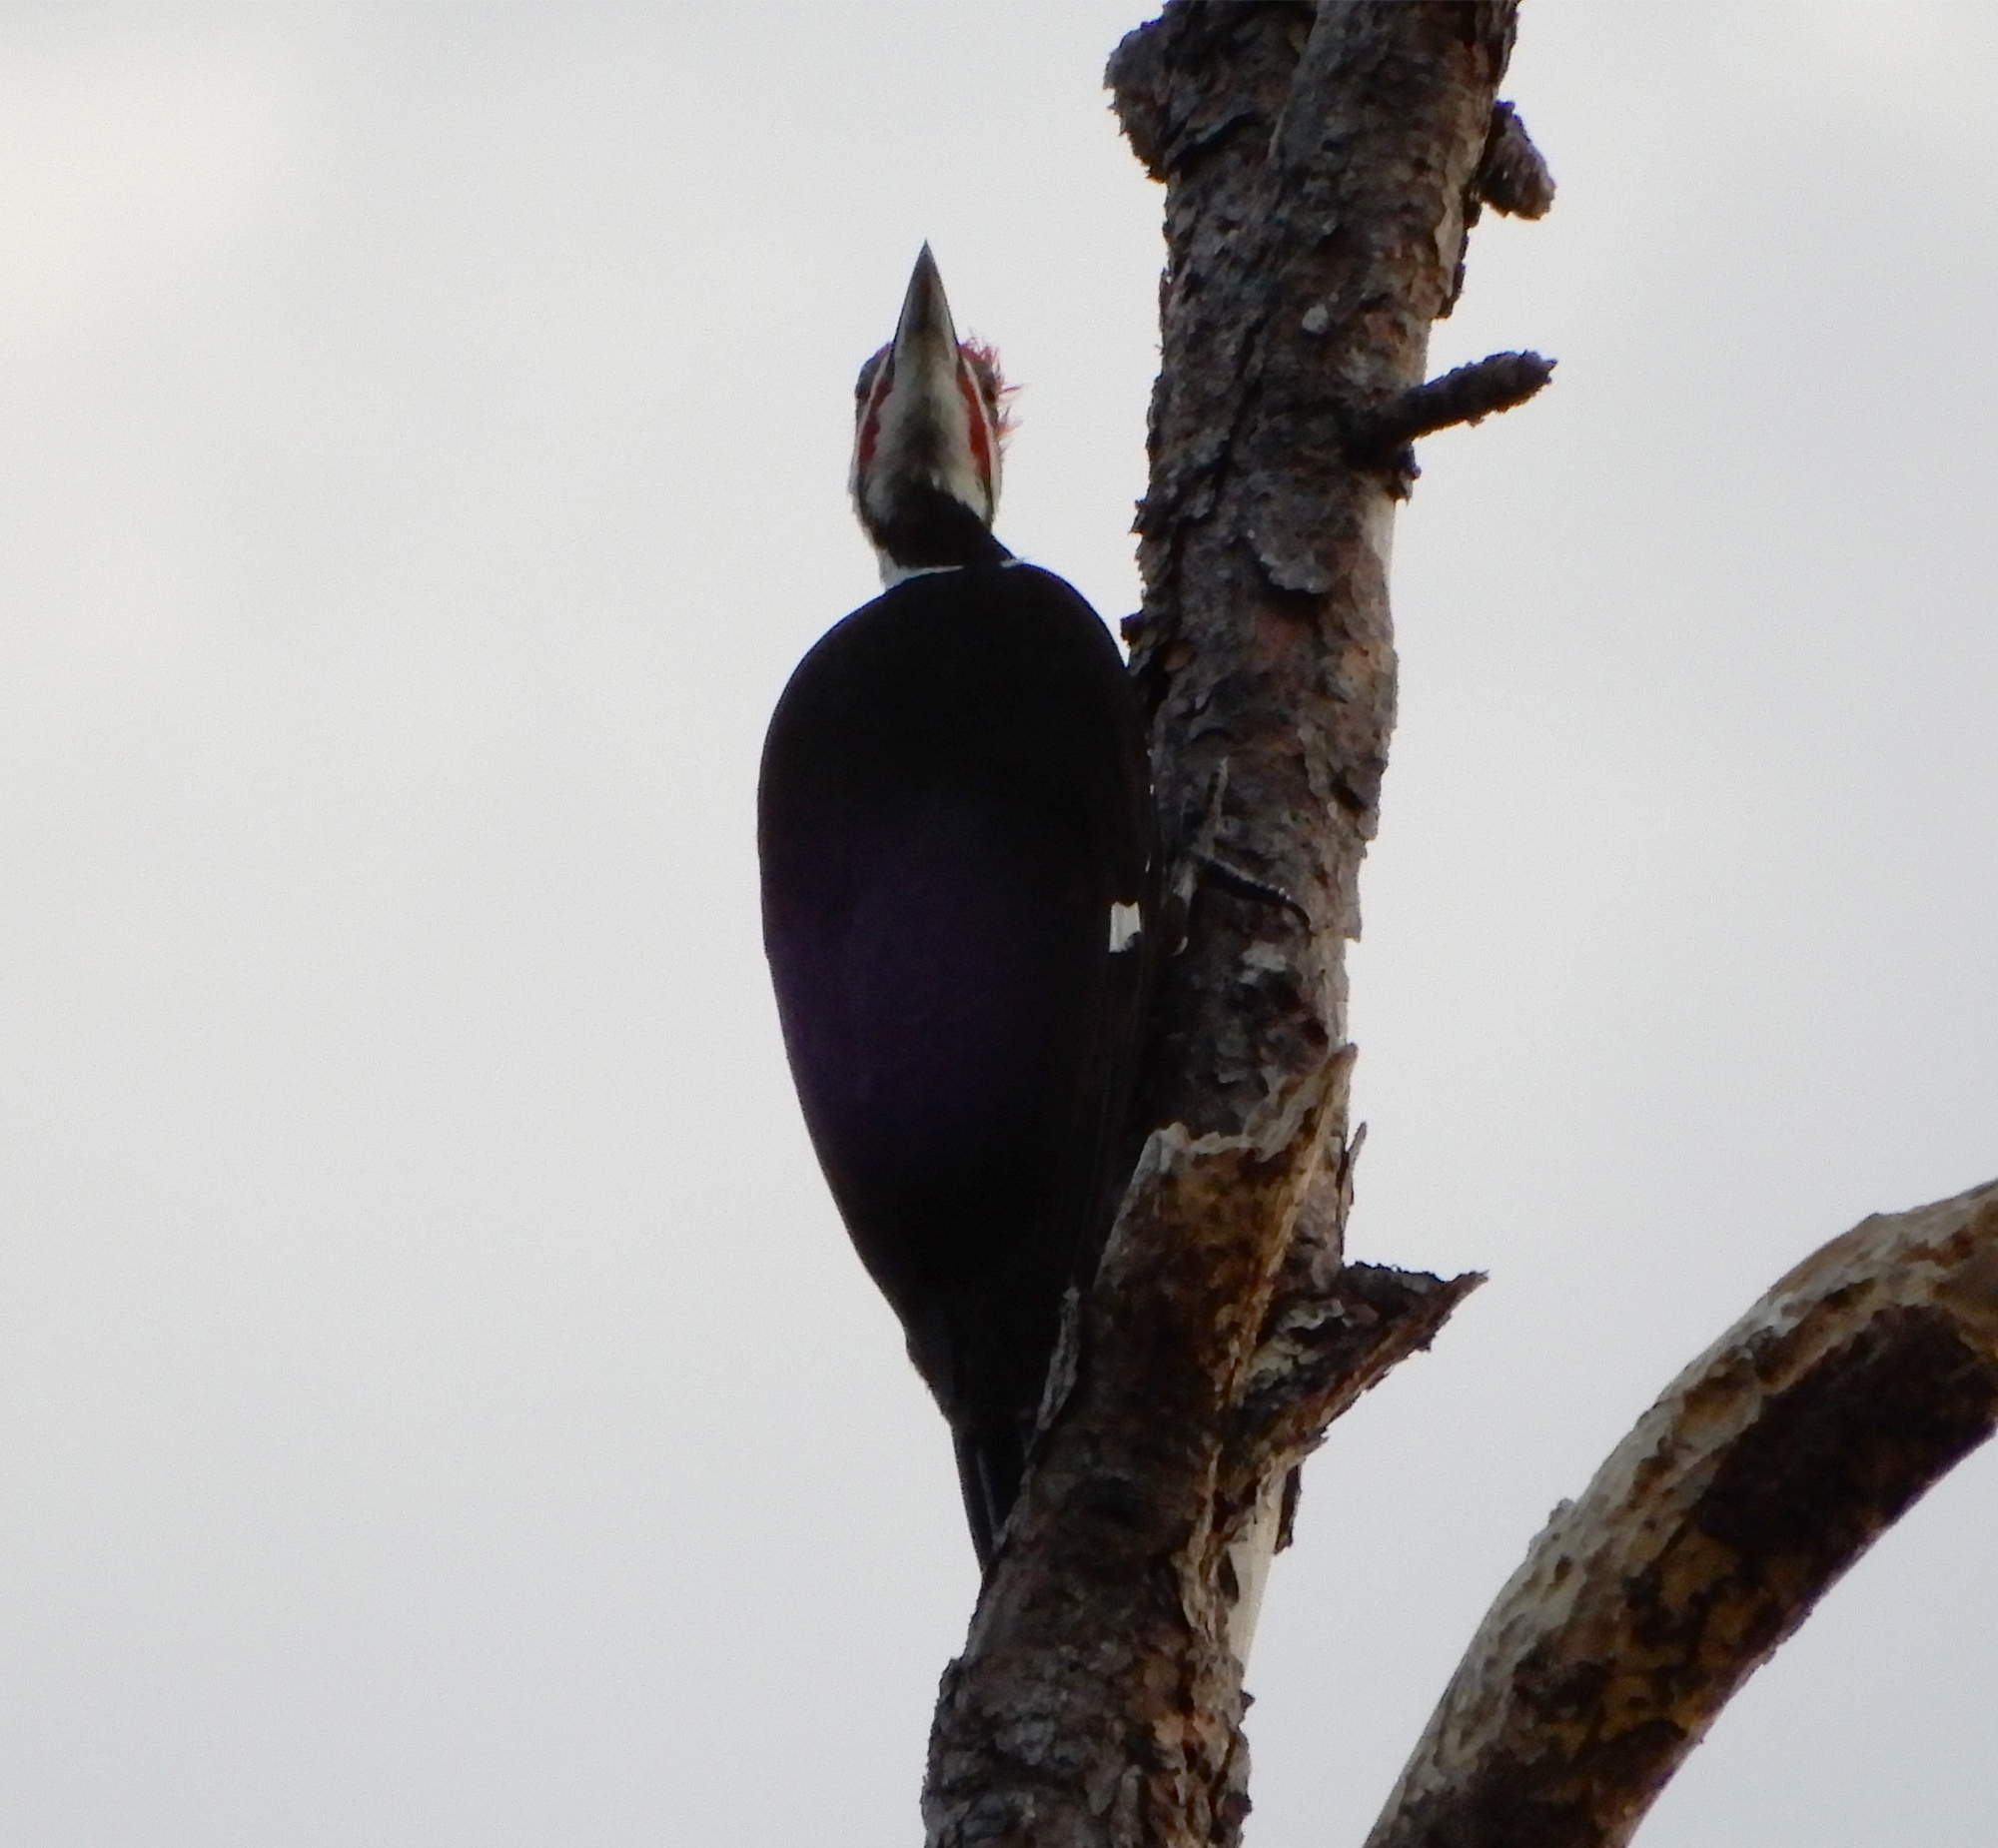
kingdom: Animalia
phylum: Chordata
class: Aves
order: Piciformes
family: Picidae
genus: Dryocopus
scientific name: Dryocopus pileatus
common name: Pileated woodpecker
